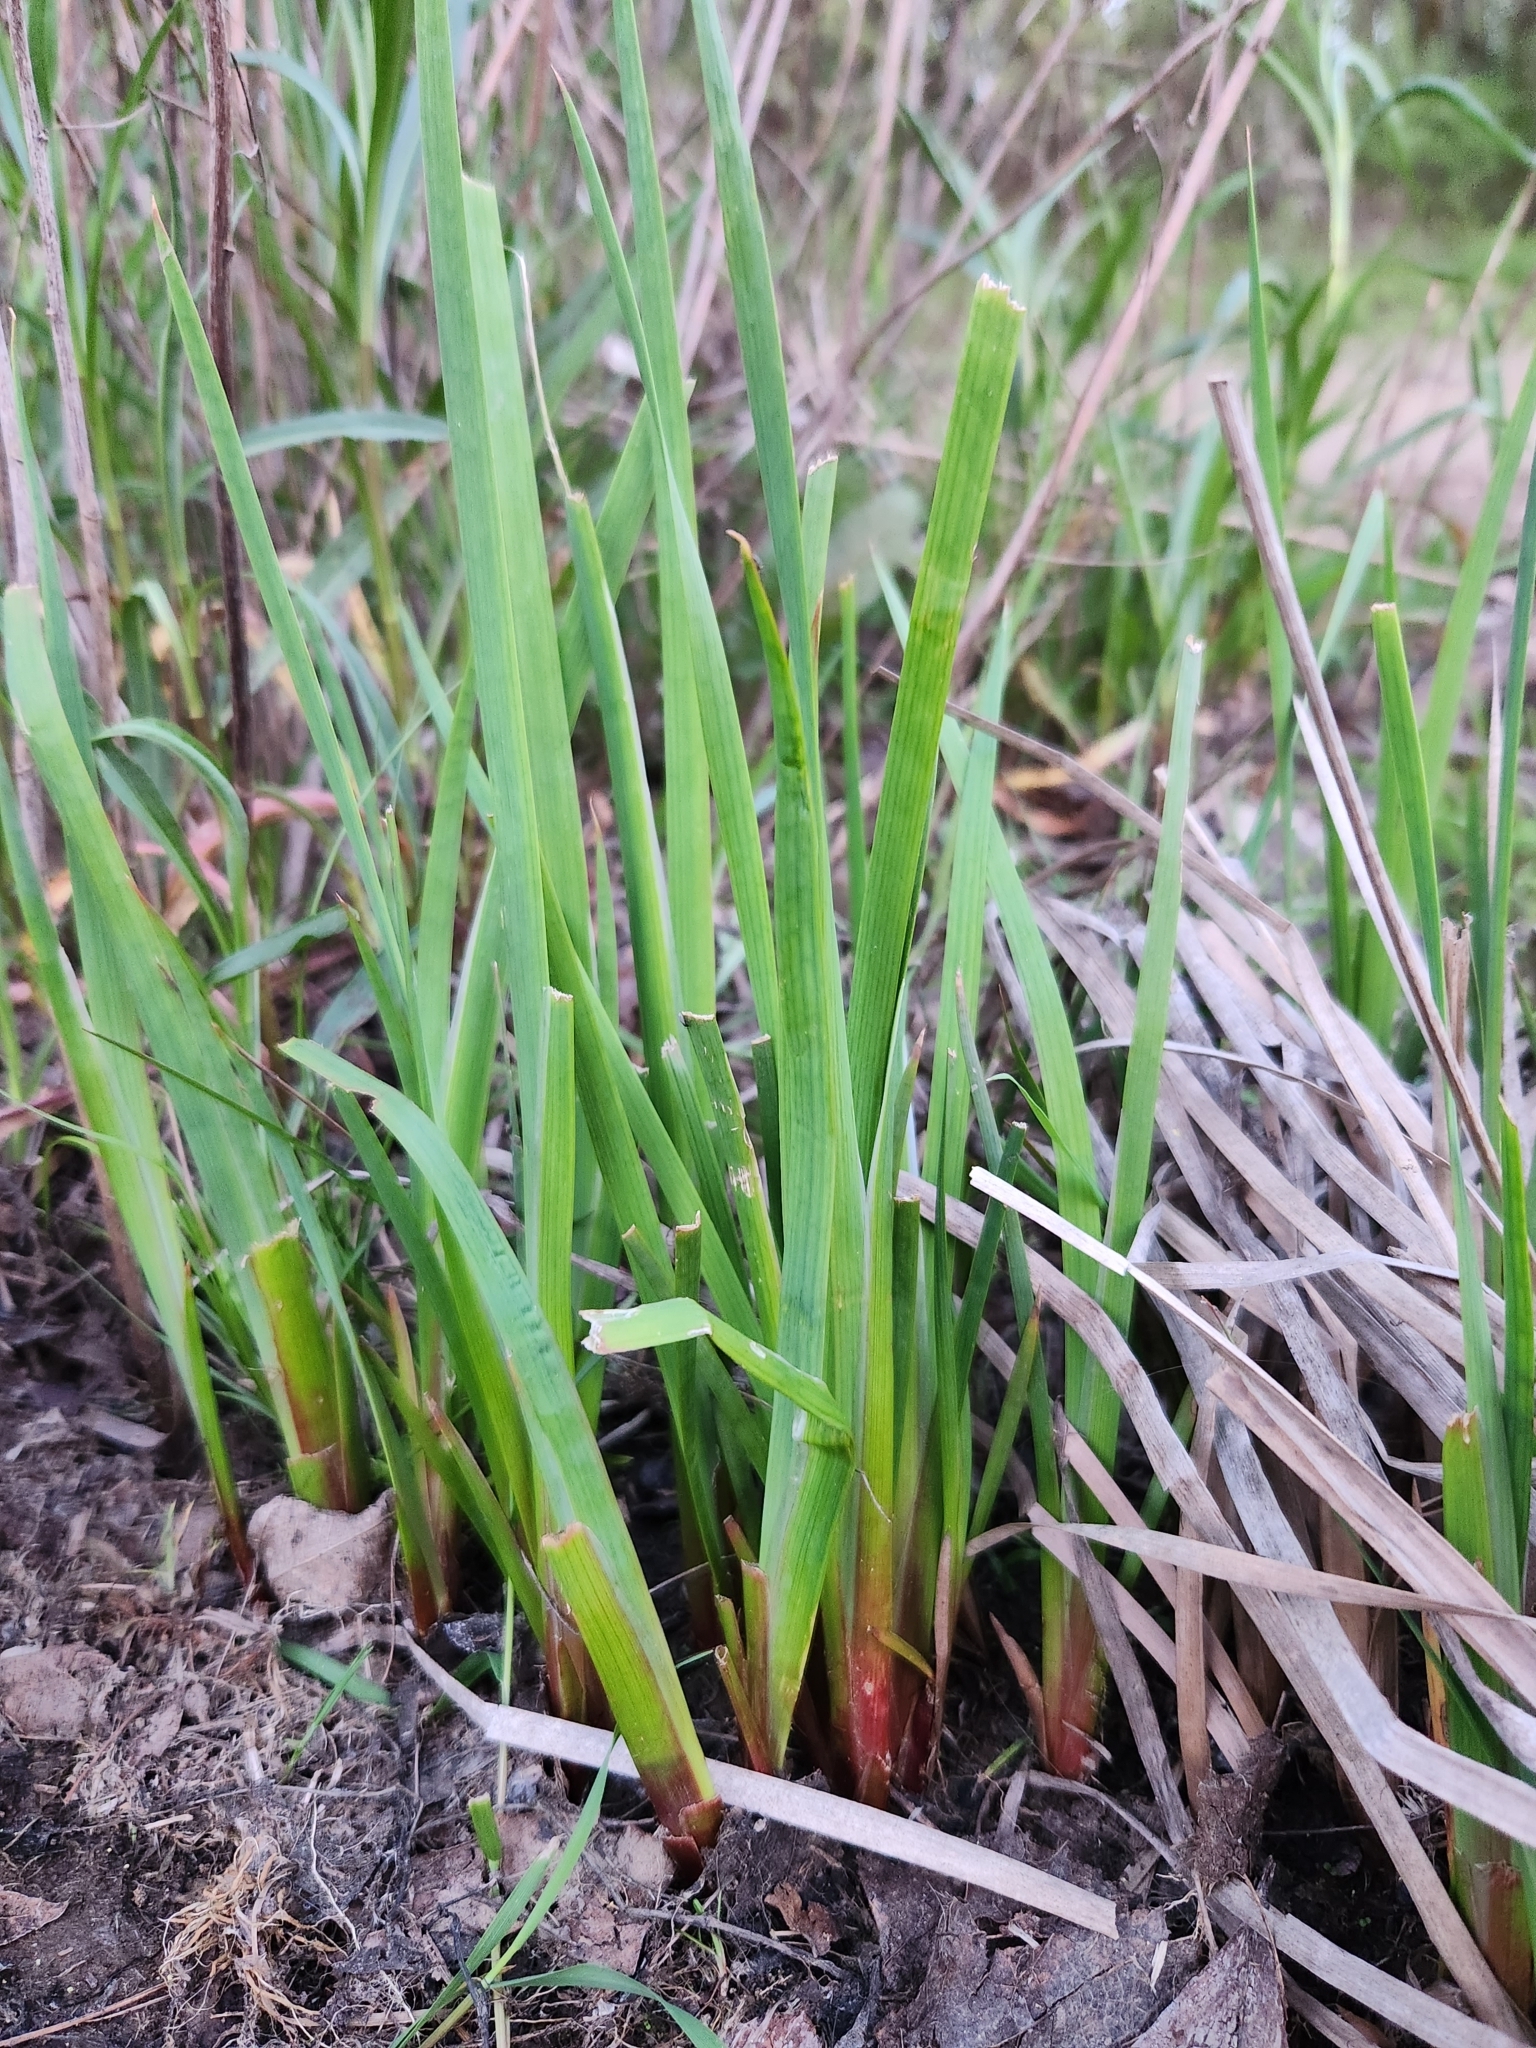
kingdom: Plantae
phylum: Tracheophyta
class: Liliopsida
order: Poales
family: Juncaceae
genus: Juncus
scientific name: Juncus ensifolius
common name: Sword-leaved rush
